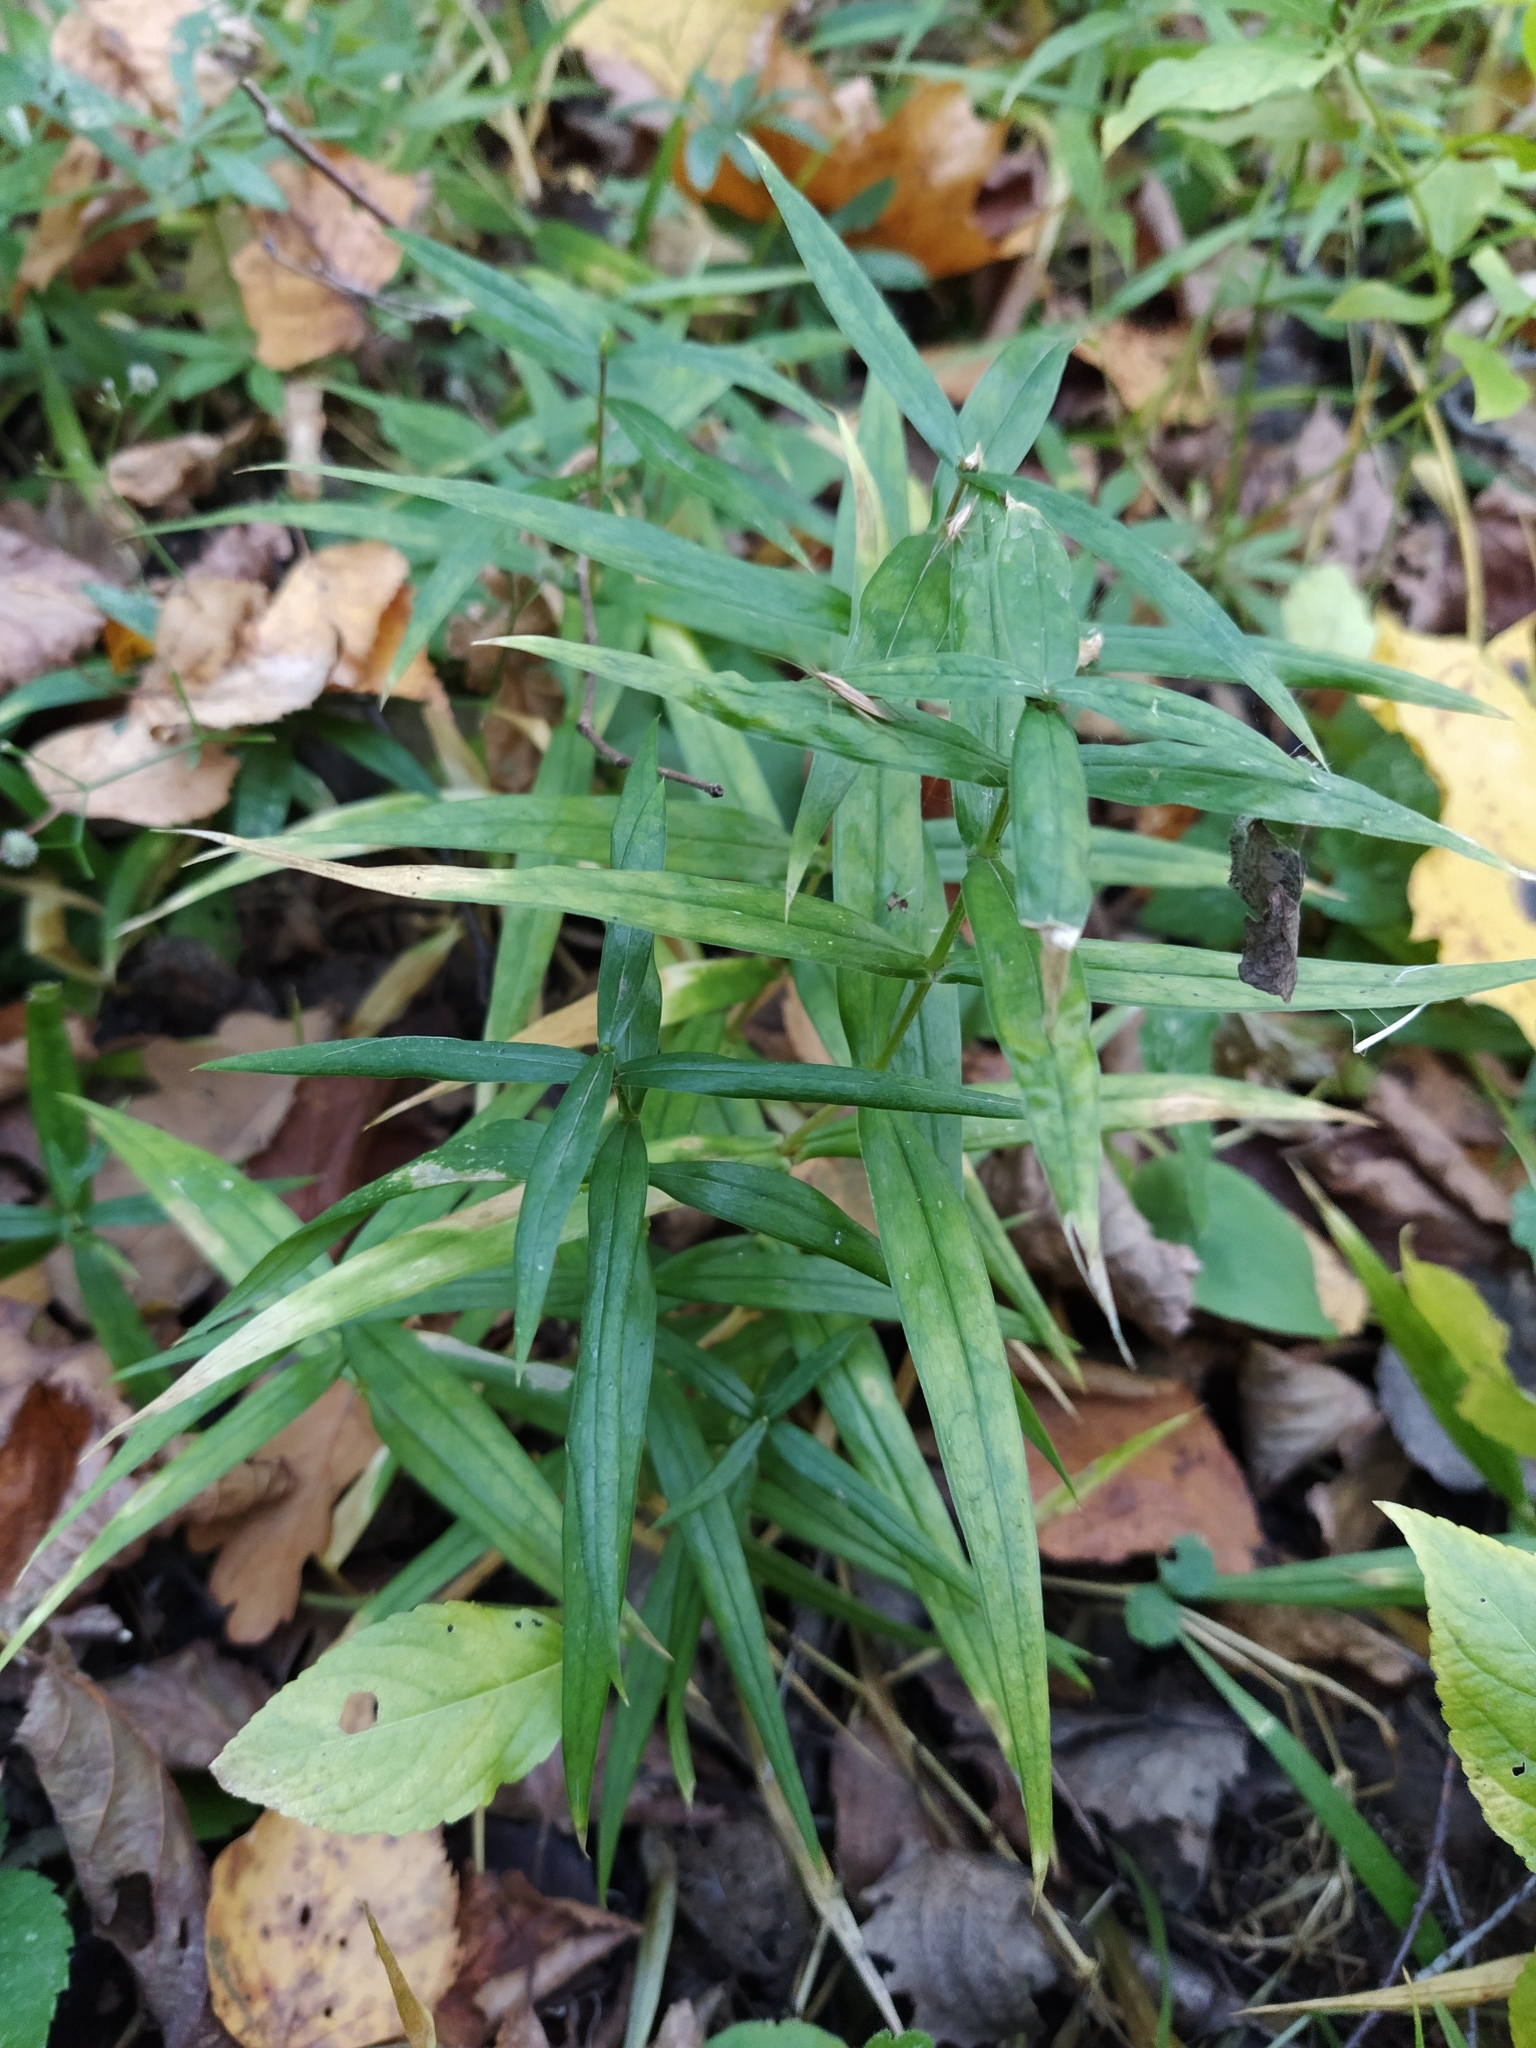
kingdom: Plantae
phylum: Tracheophyta
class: Magnoliopsida
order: Caryophyllales
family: Caryophyllaceae
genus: Rabelera
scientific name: Rabelera holostea
